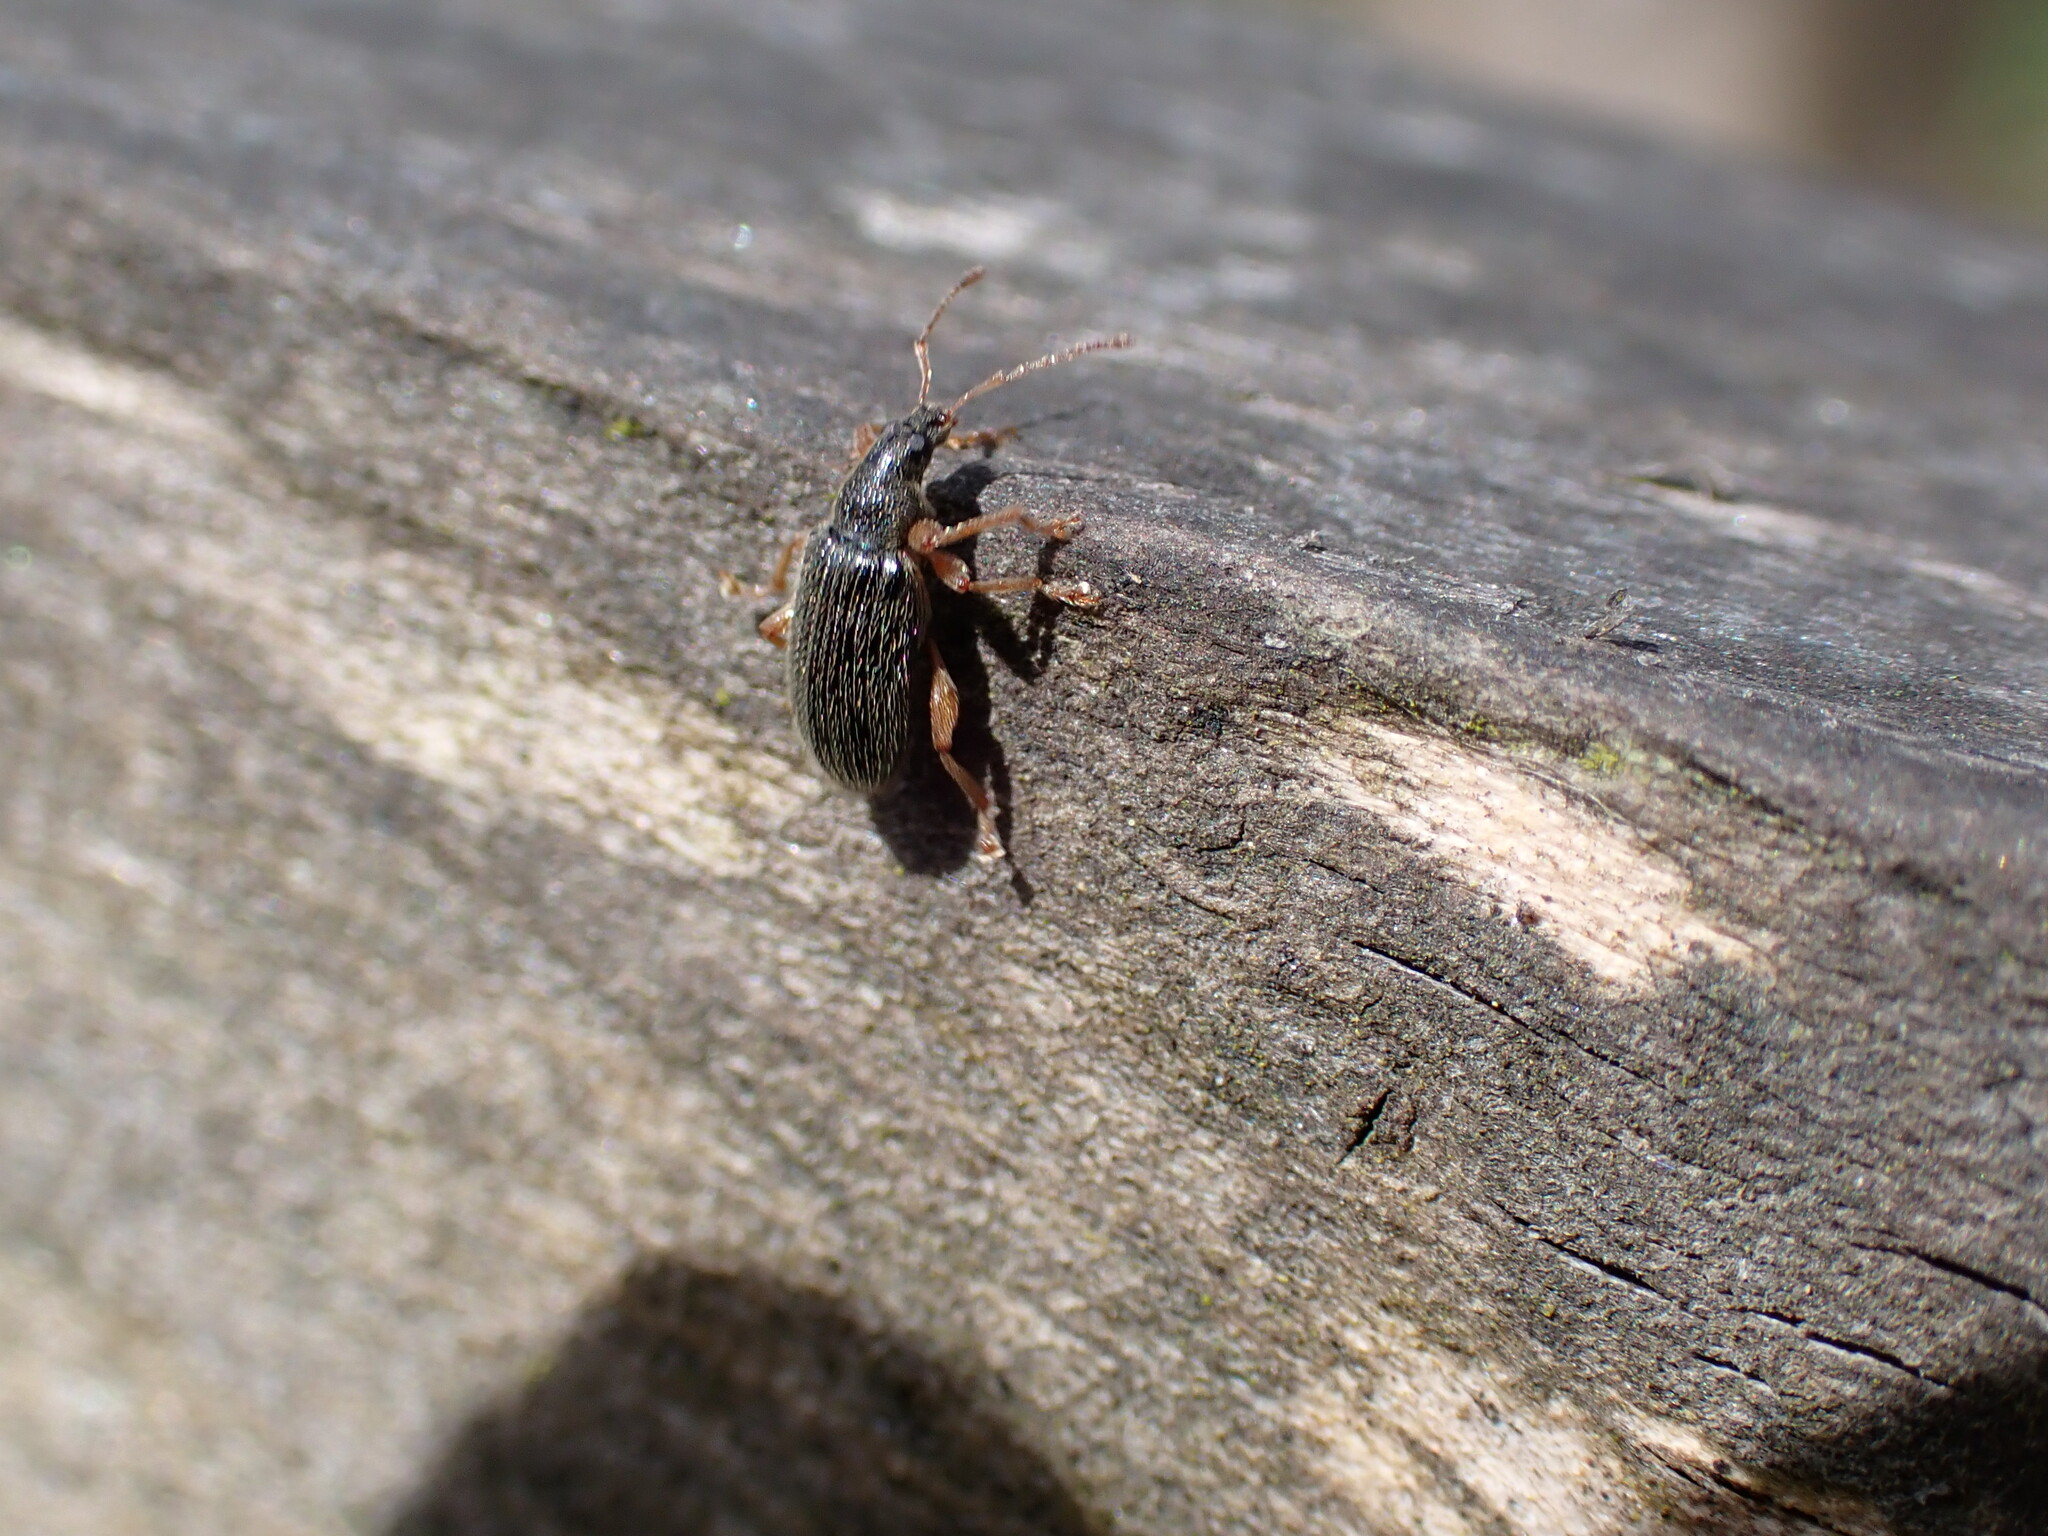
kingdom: Animalia
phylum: Arthropoda
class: Insecta
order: Coleoptera
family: Curculionidae
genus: Phyllobius
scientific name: Phyllobius oblongus
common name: Brown leaf weevil
